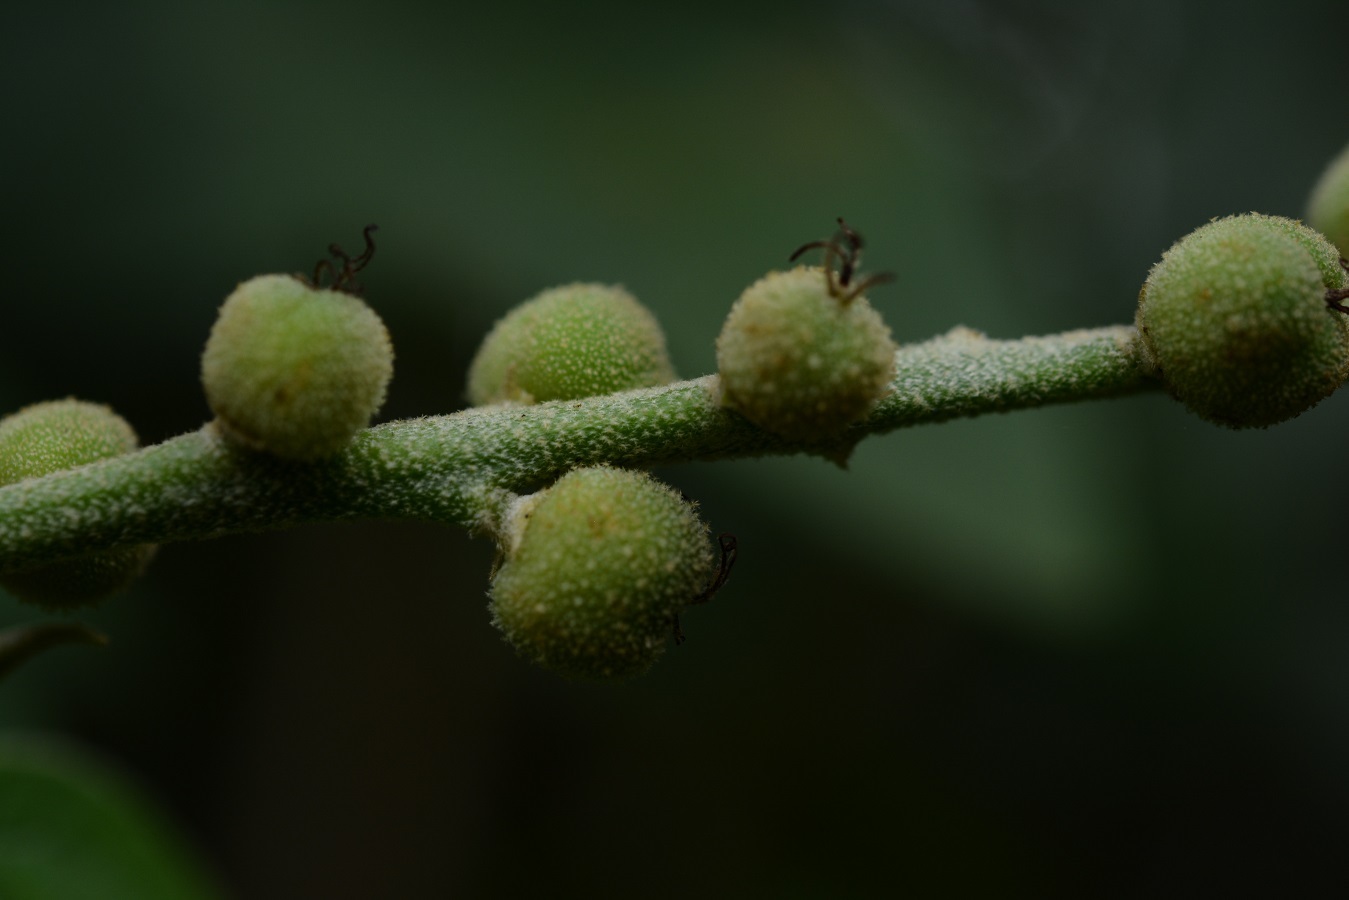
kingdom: Plantae
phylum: Tracheophyta
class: Magnoliopsida
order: Malpighiales
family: Euphorbiaceae
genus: Croton
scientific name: Croton mexicanus
